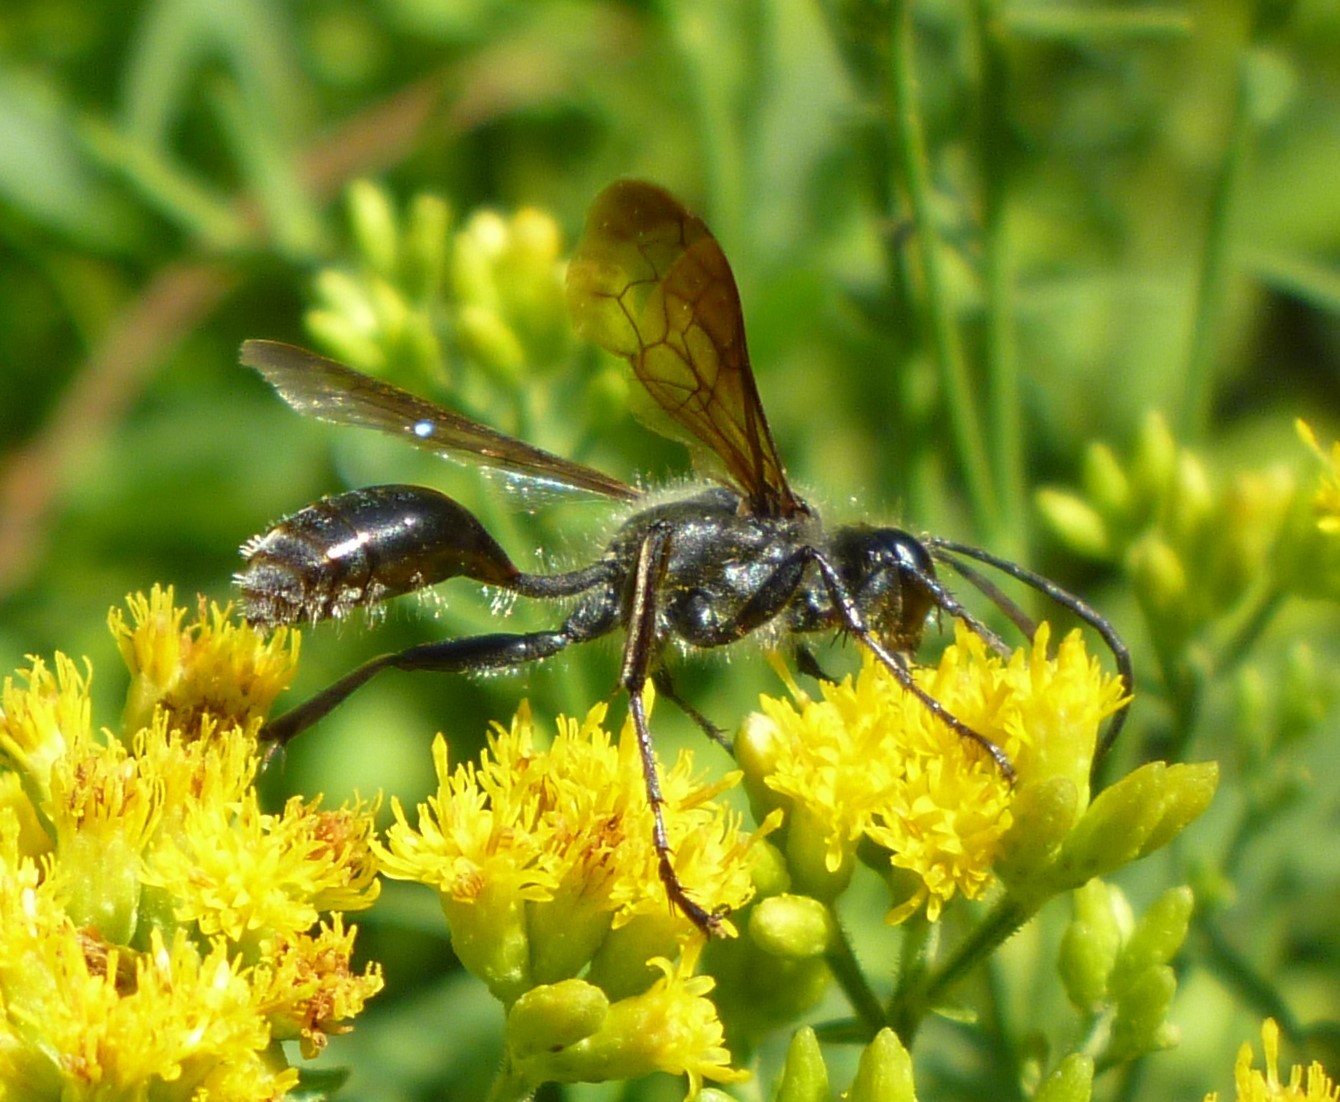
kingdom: Animalia
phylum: Arthropoda
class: Insecta
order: Hymenoptera
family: Sphecidae
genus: Isodontia
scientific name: Isodontia mexicana
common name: Mud dauber
